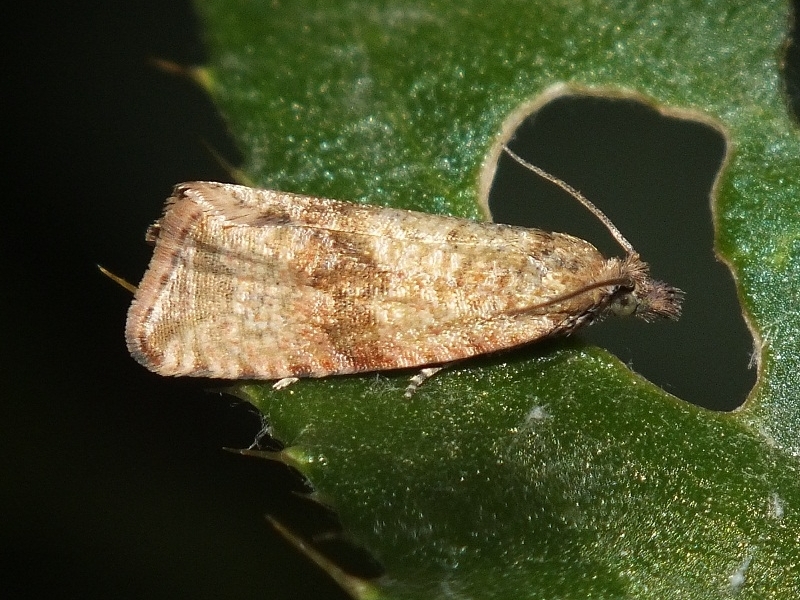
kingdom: Animalia
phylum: Arthropoda
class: Insecta
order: Lepidoptera
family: Tortricidae
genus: Celypha
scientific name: Celypha anatoliana
